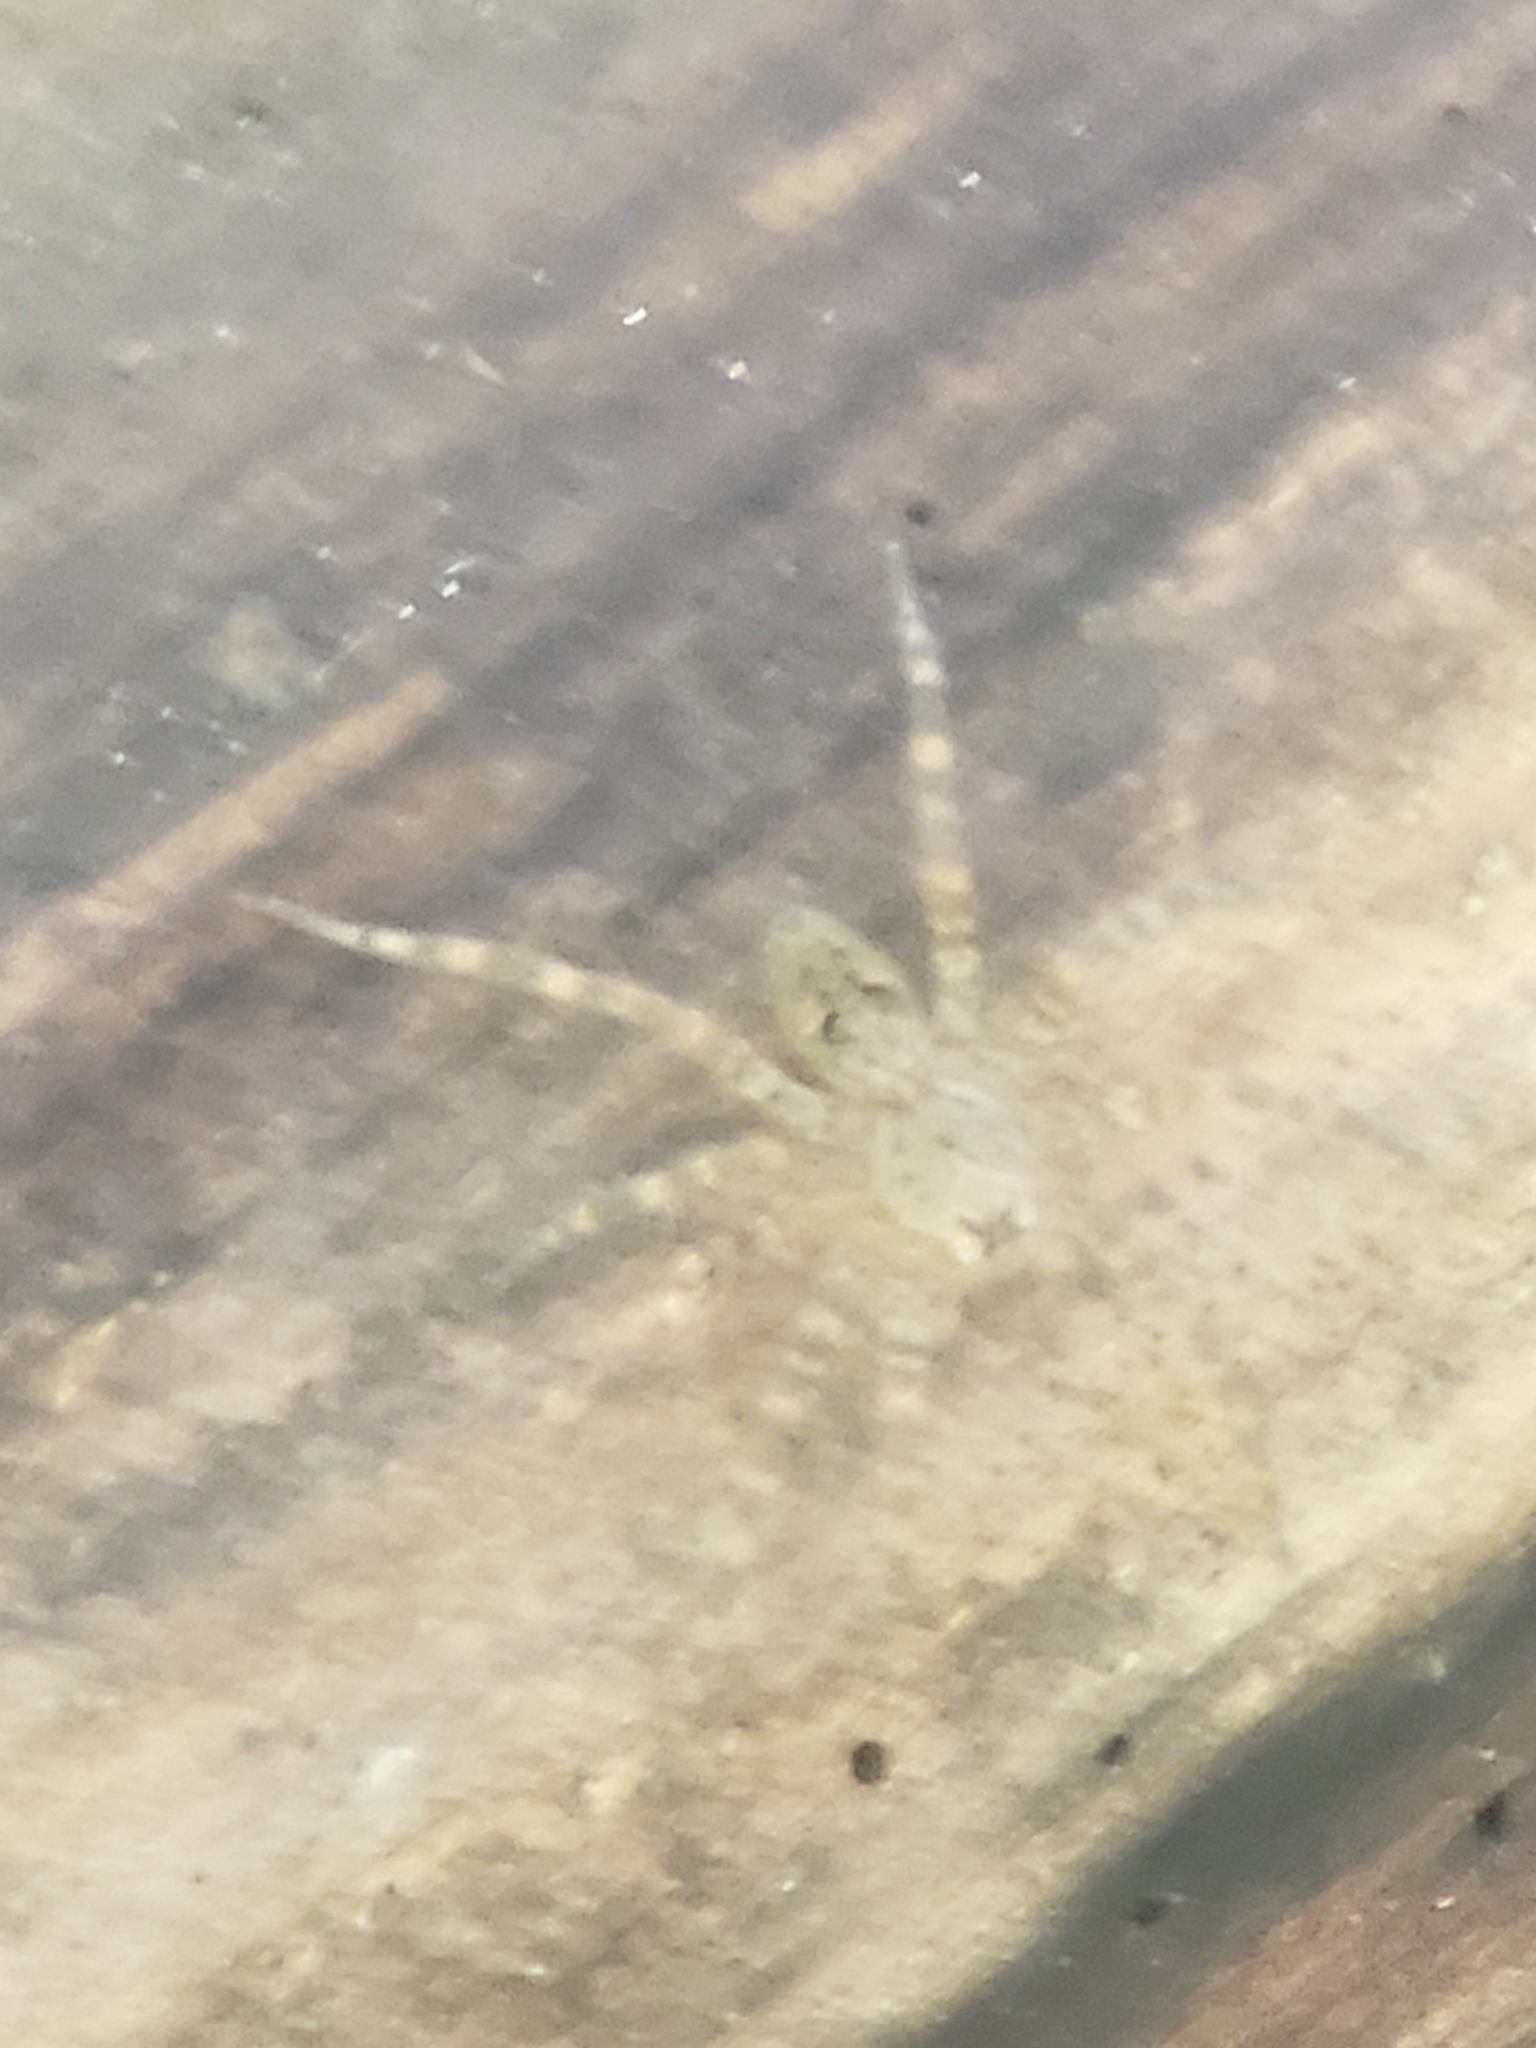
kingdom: Animalia
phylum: Arthropoda
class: Arachnida
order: Araneae
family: Pisauridae
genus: Dolomedes
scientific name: Dolomedes tenebrosus
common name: Dark fishing spider
